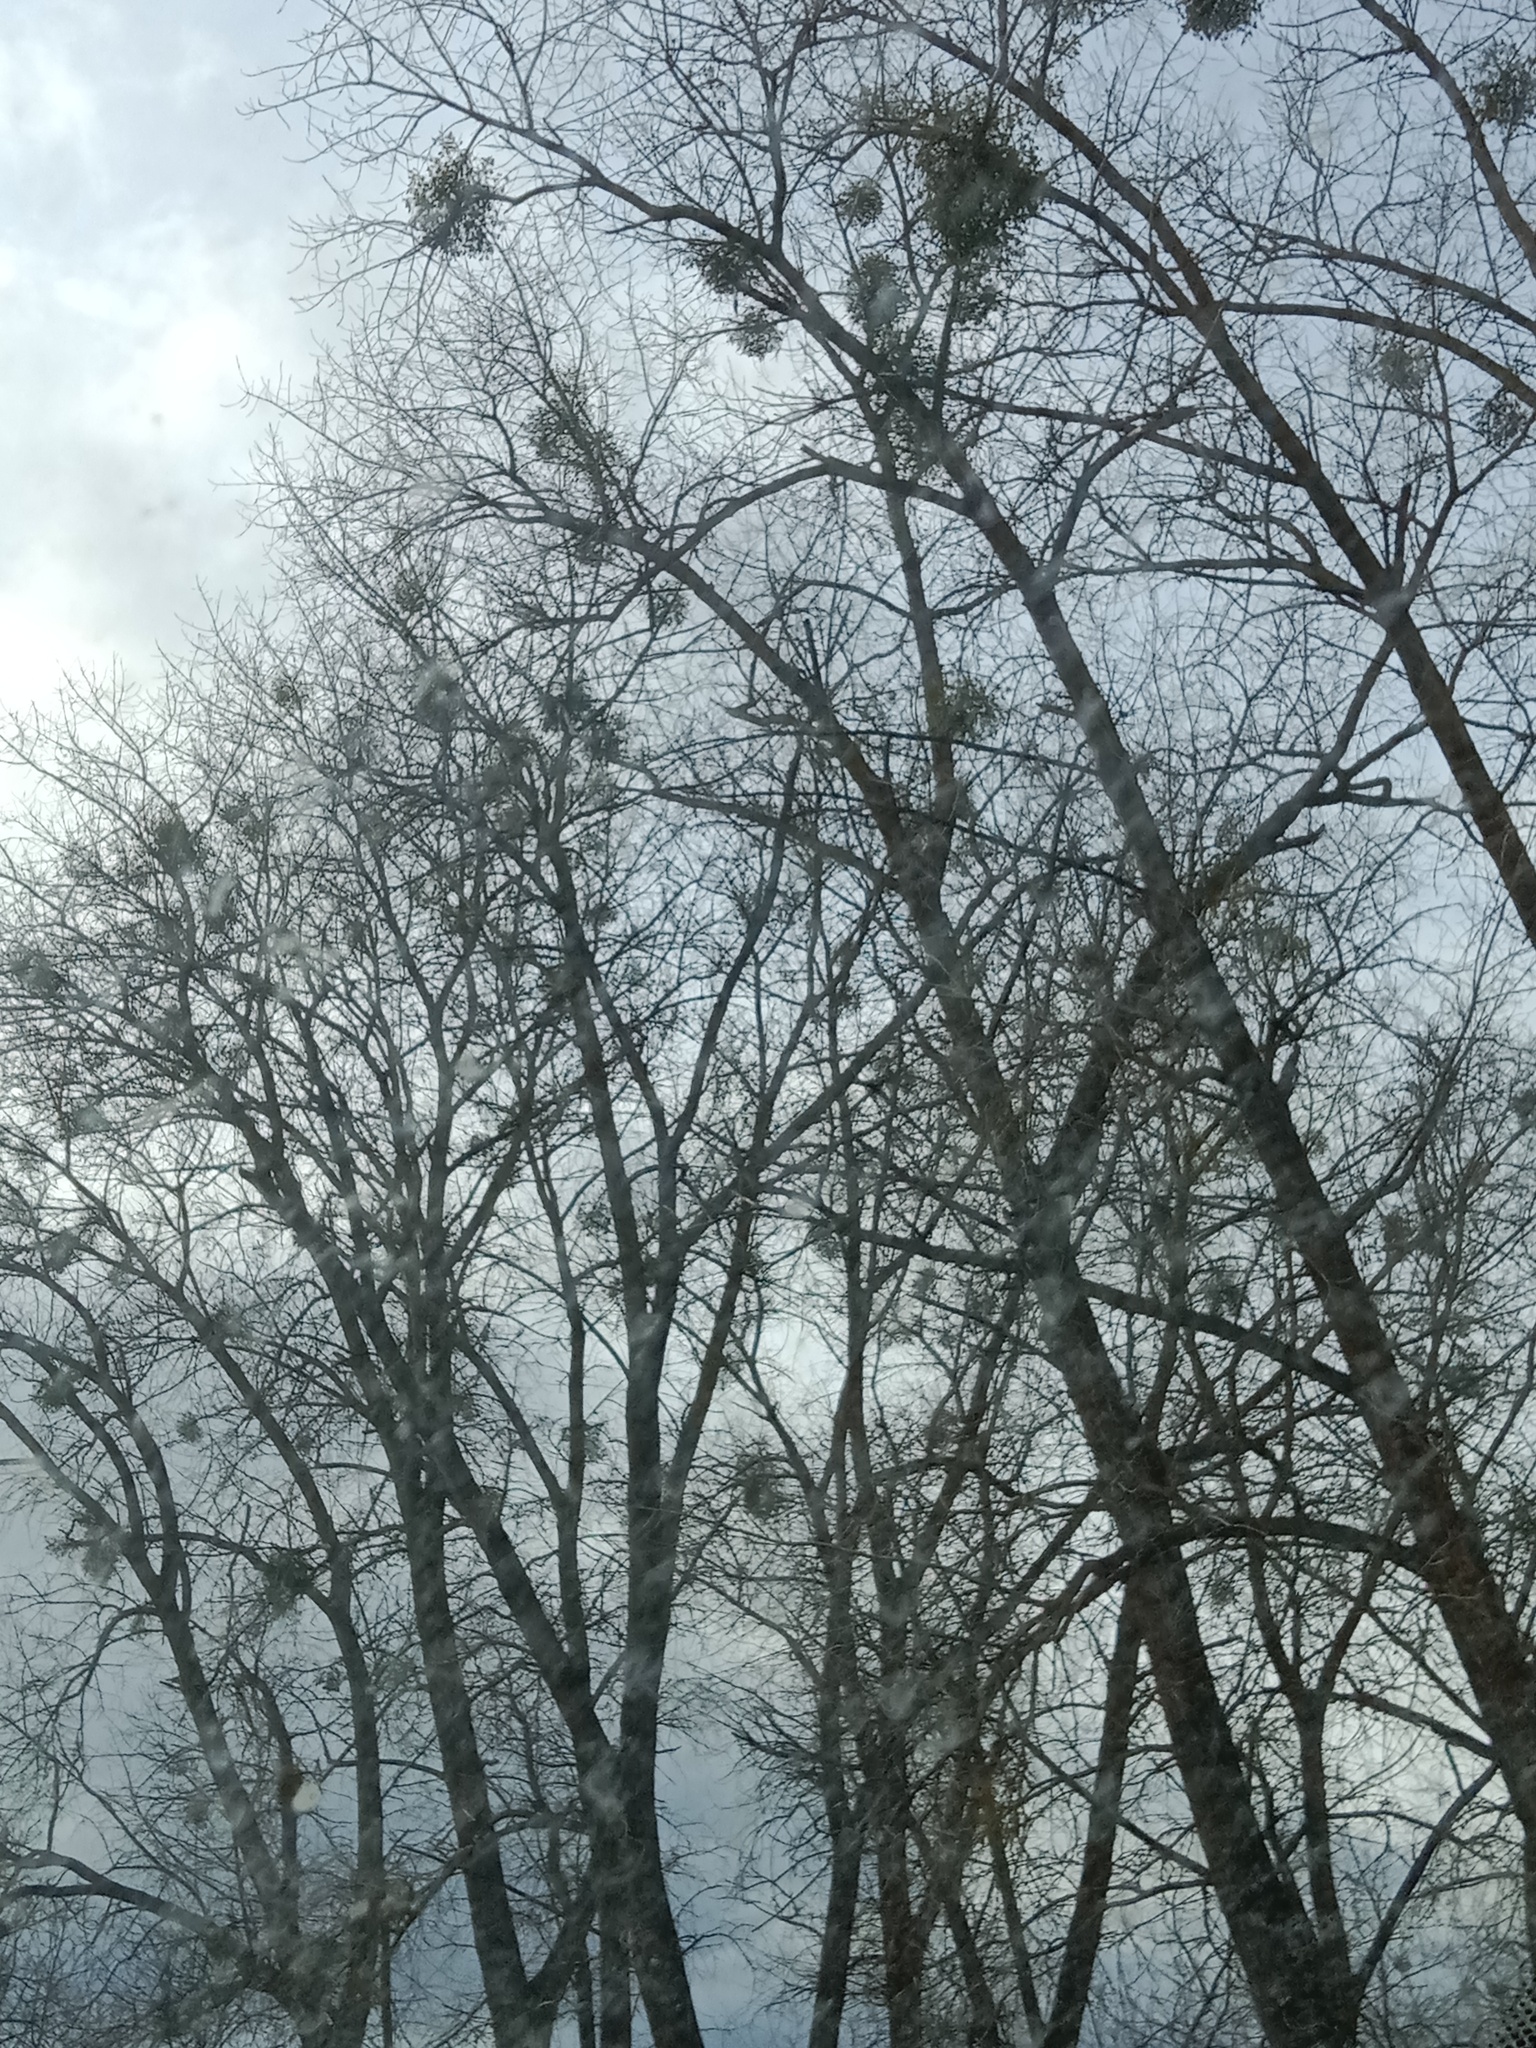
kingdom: Plantae
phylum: Tracheophyta
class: Magnoliopsida
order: Santalales
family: Viscaceae
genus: Viscum
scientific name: Viscum album
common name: Mistletoe
